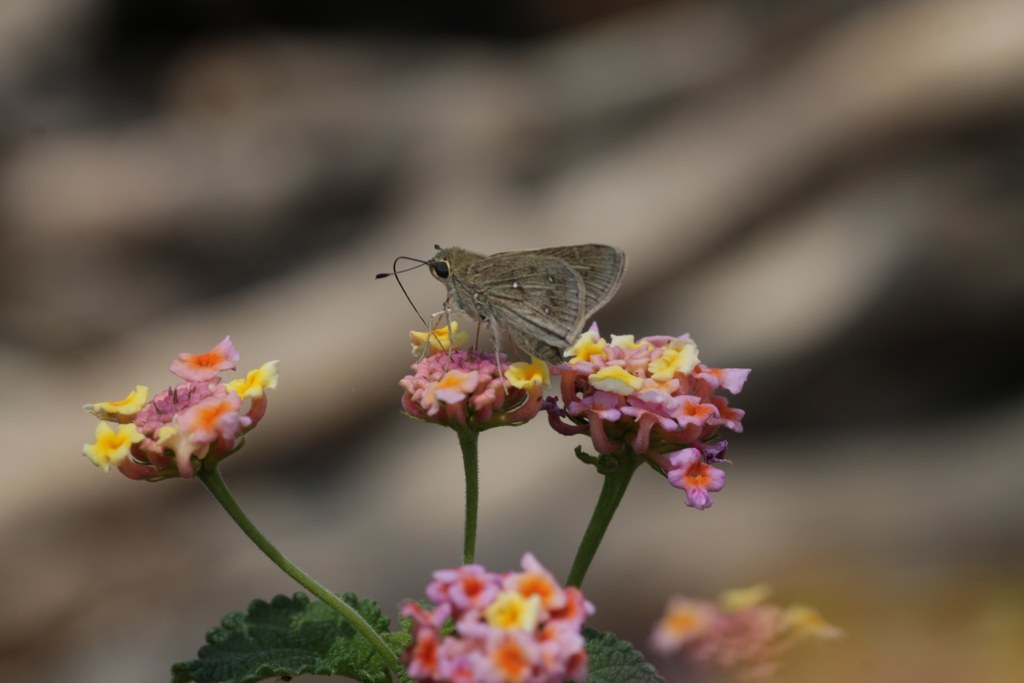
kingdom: Animalia
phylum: Arthropoda
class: Insecta
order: Lepidoptera
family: Hesperiidae
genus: Pelopidas
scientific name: Pelopidas mathias
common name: Black-branded swift
